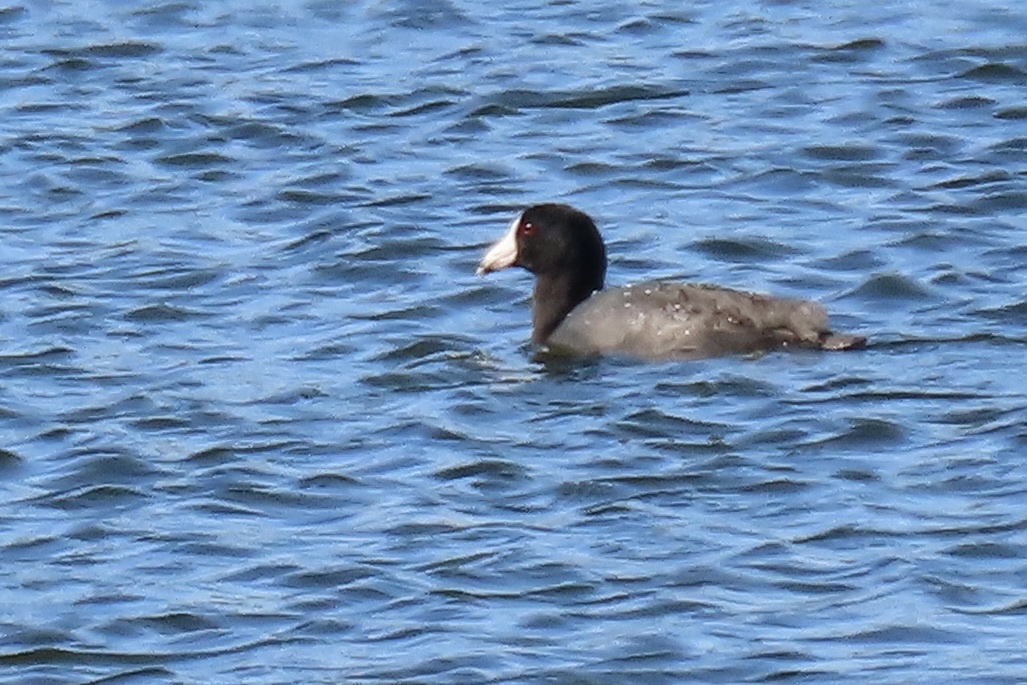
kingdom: Animalia
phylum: Chordata
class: Aves
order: Gruiformes
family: Rallidae
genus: Fulica
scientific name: Fulica americana
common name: American coot
